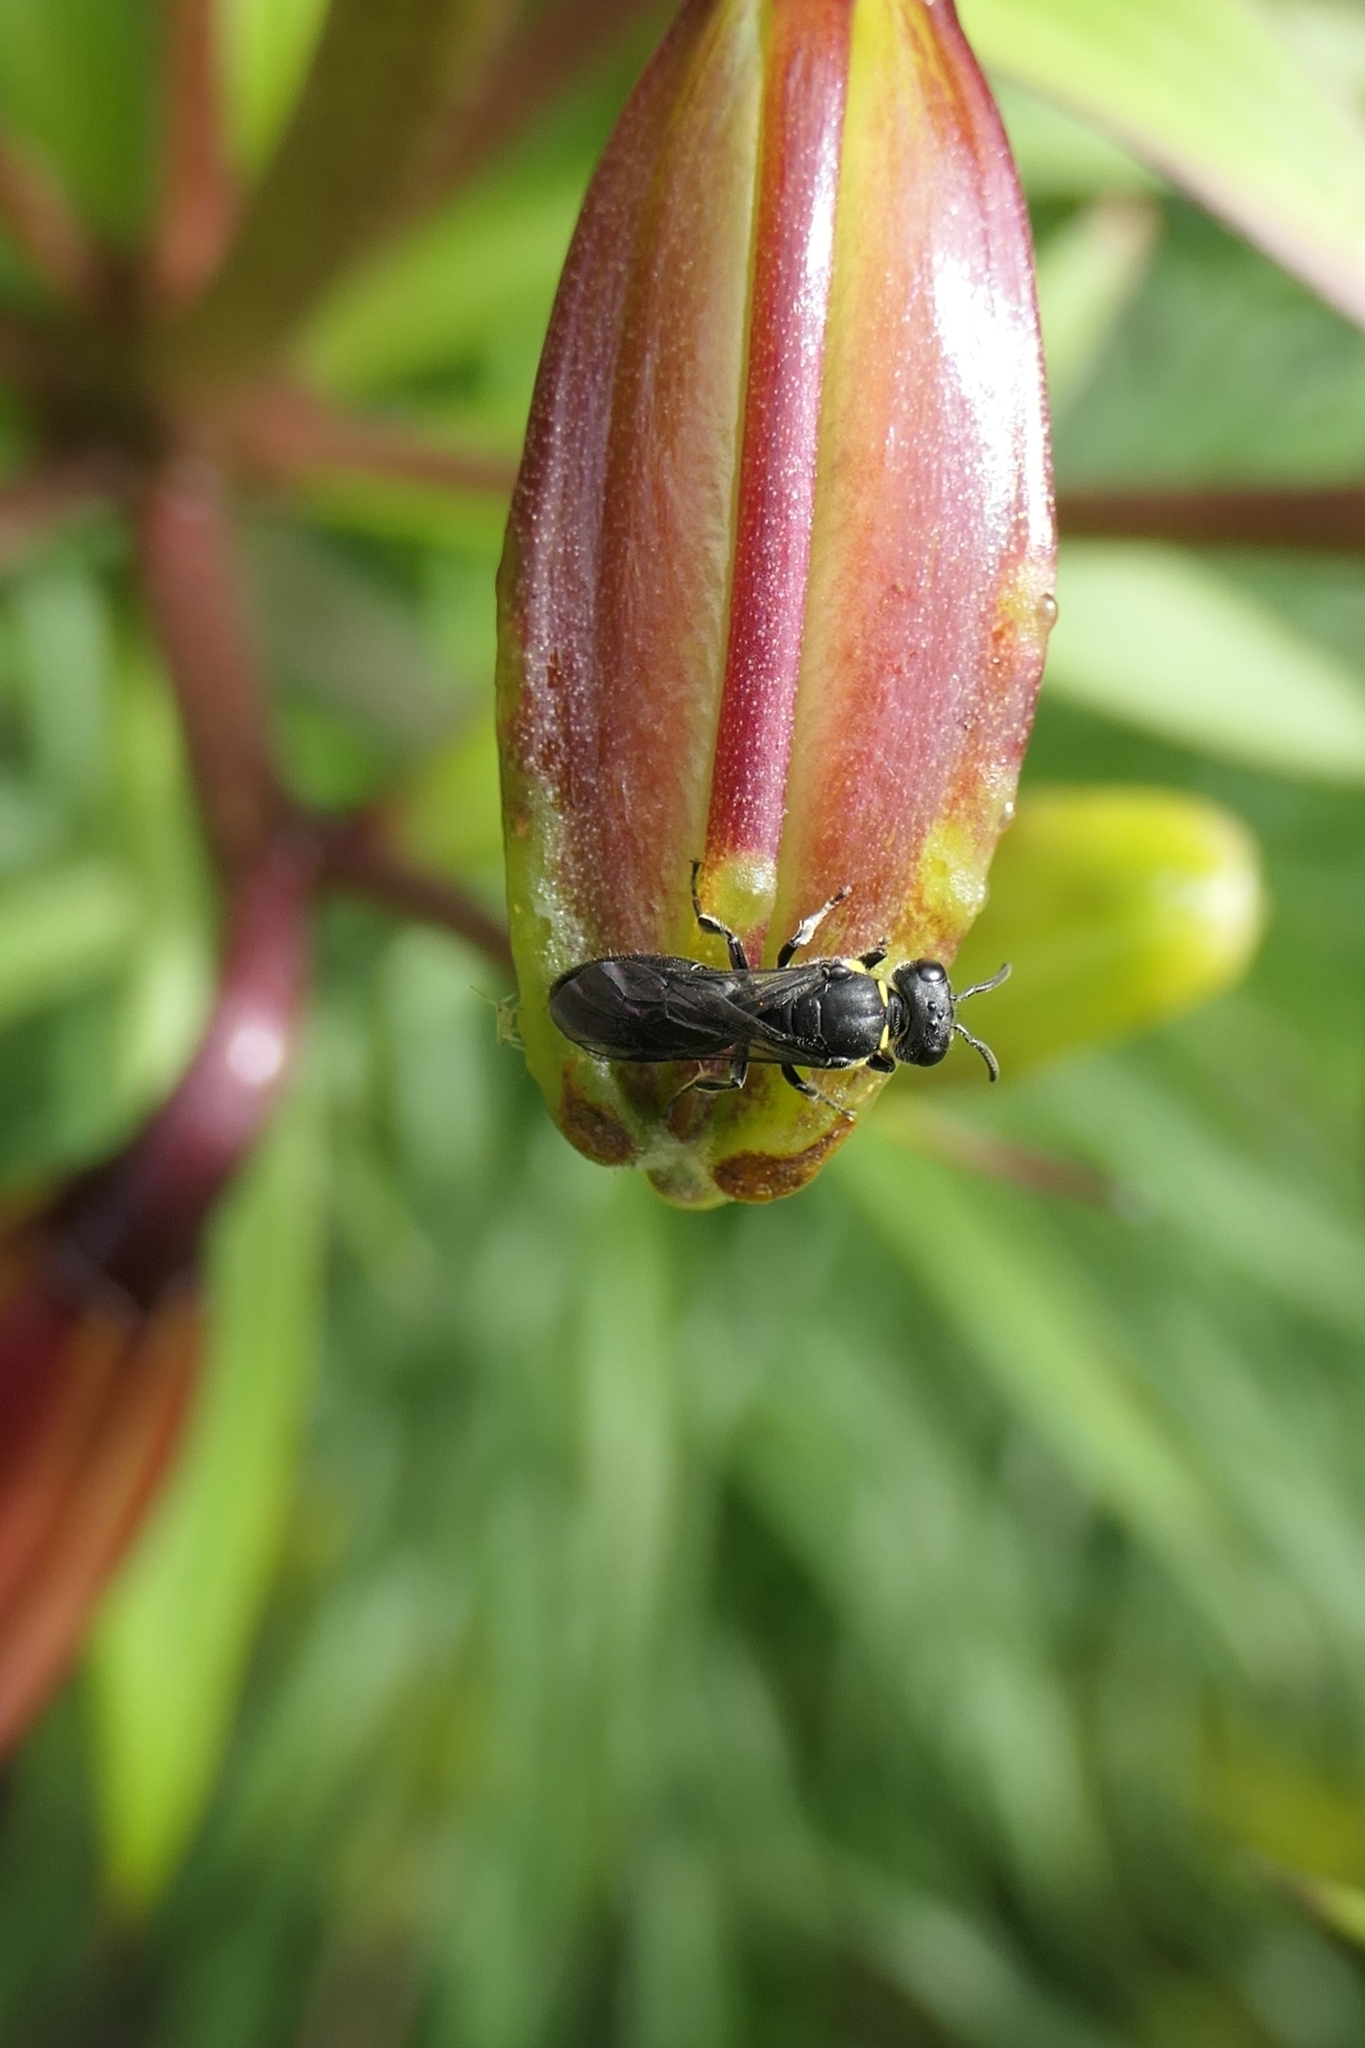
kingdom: Animalia
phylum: Arthropoda
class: Insecta
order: Hymenoptera
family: Colletidae
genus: Hylaeus
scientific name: Hylaeus relegatus
